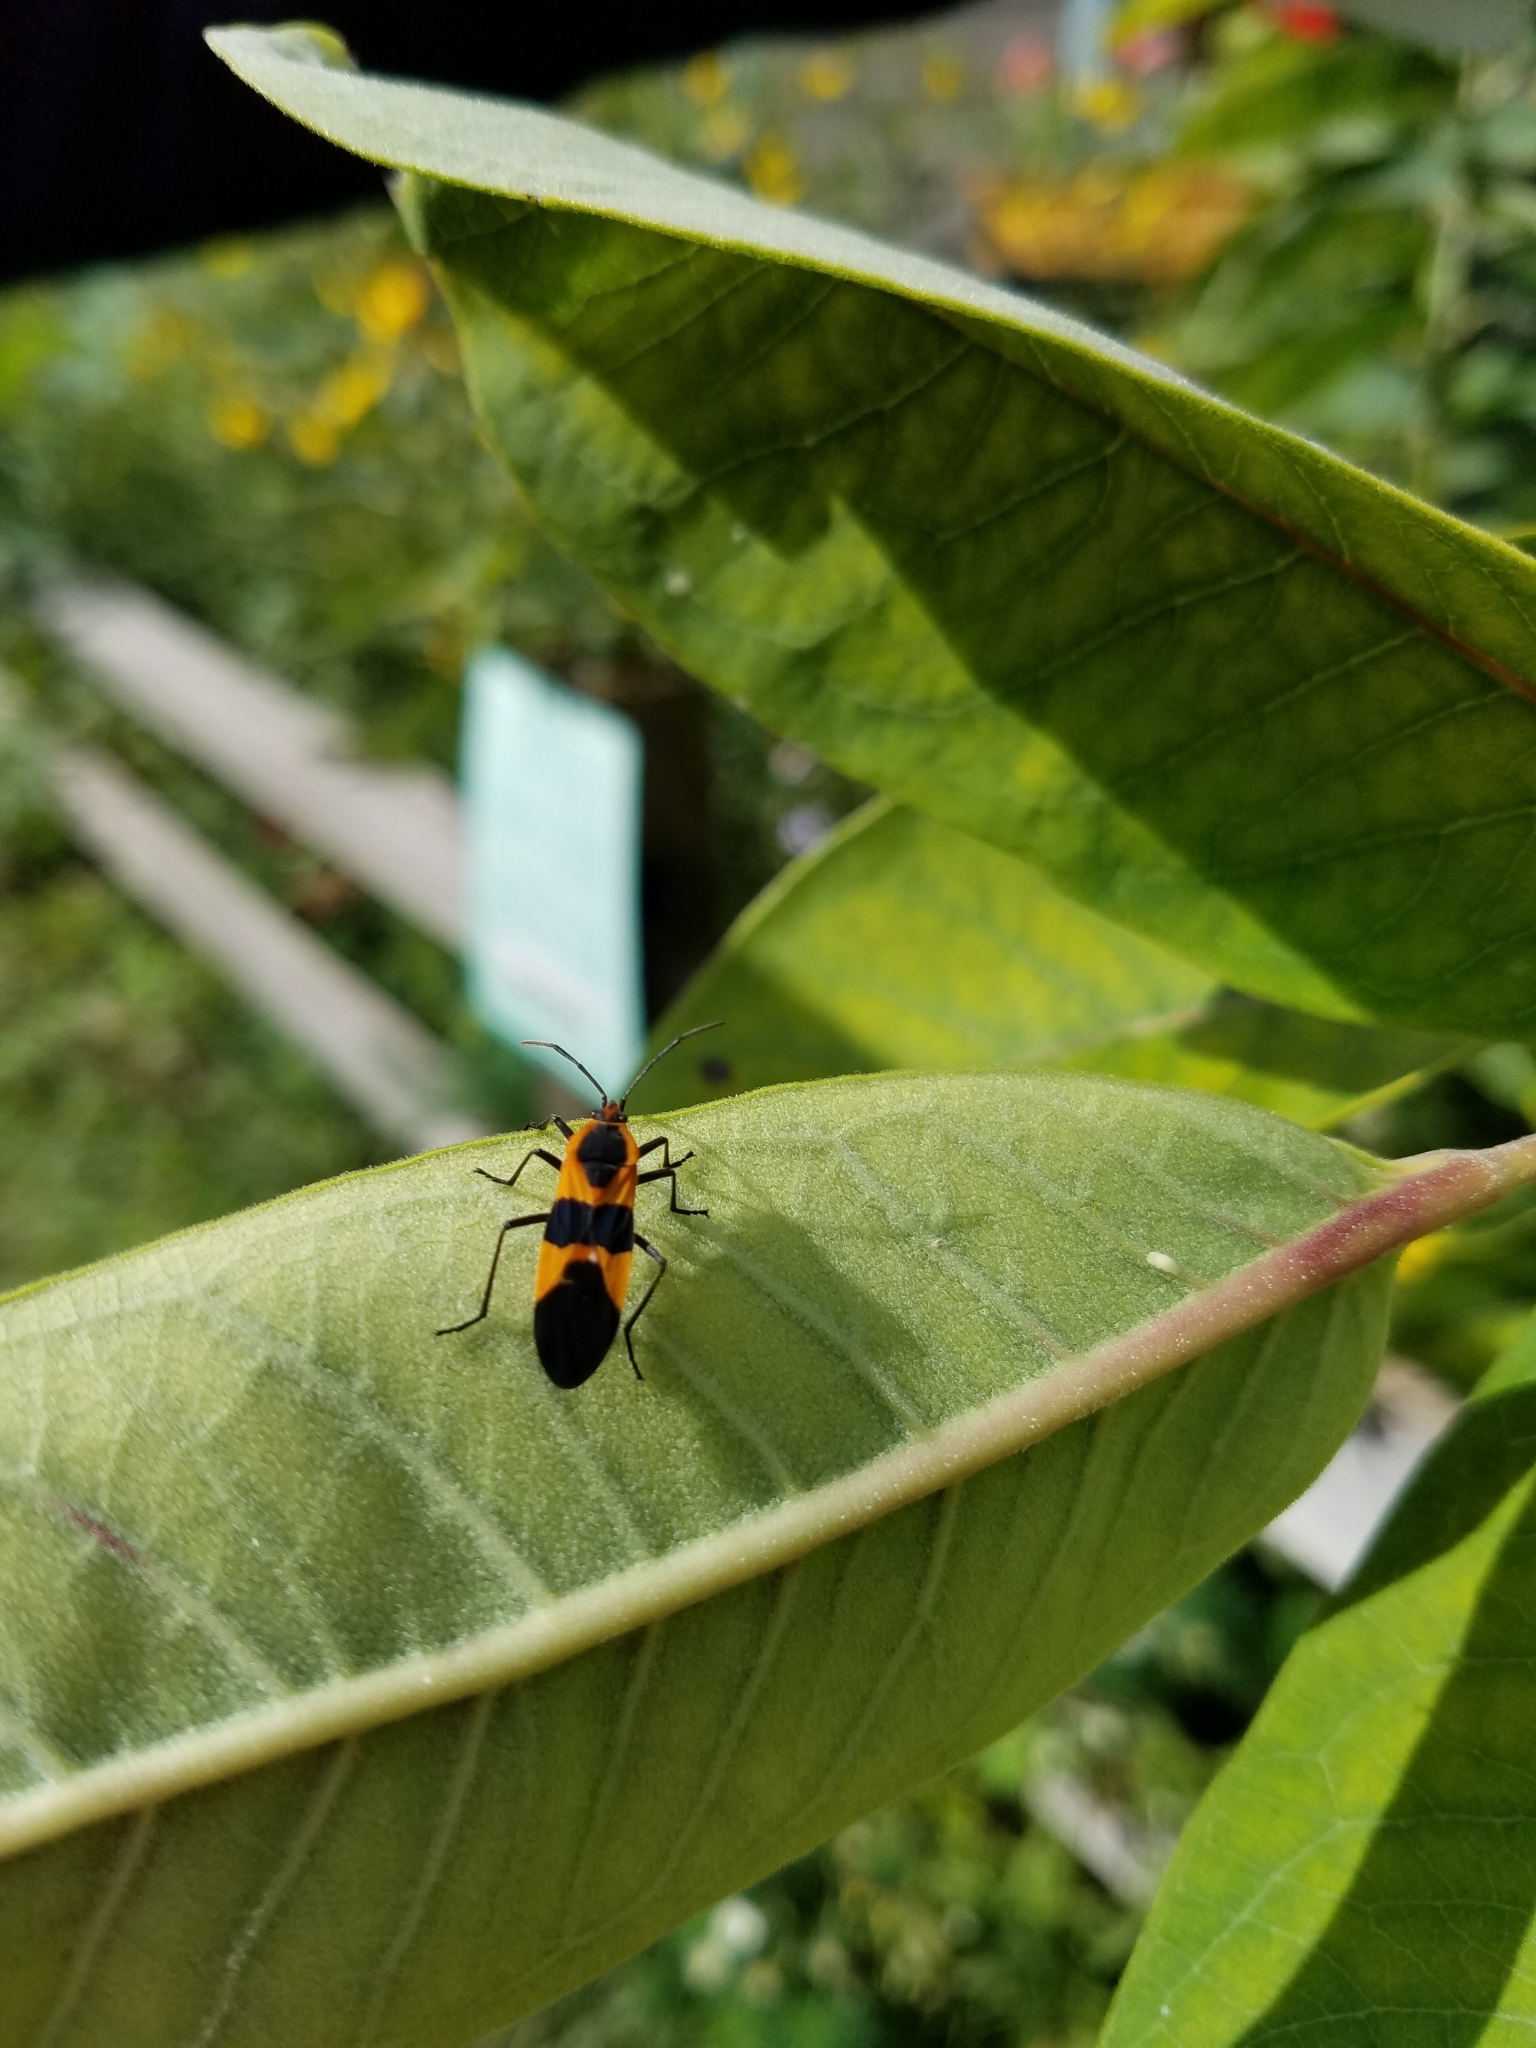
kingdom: Animalia
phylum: Arthropoda
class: Insecta
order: Hemiptera
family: Lygaeidae
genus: Oncopeltus
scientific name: Oncopeltus fasciatus
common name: Large milkweed bug
